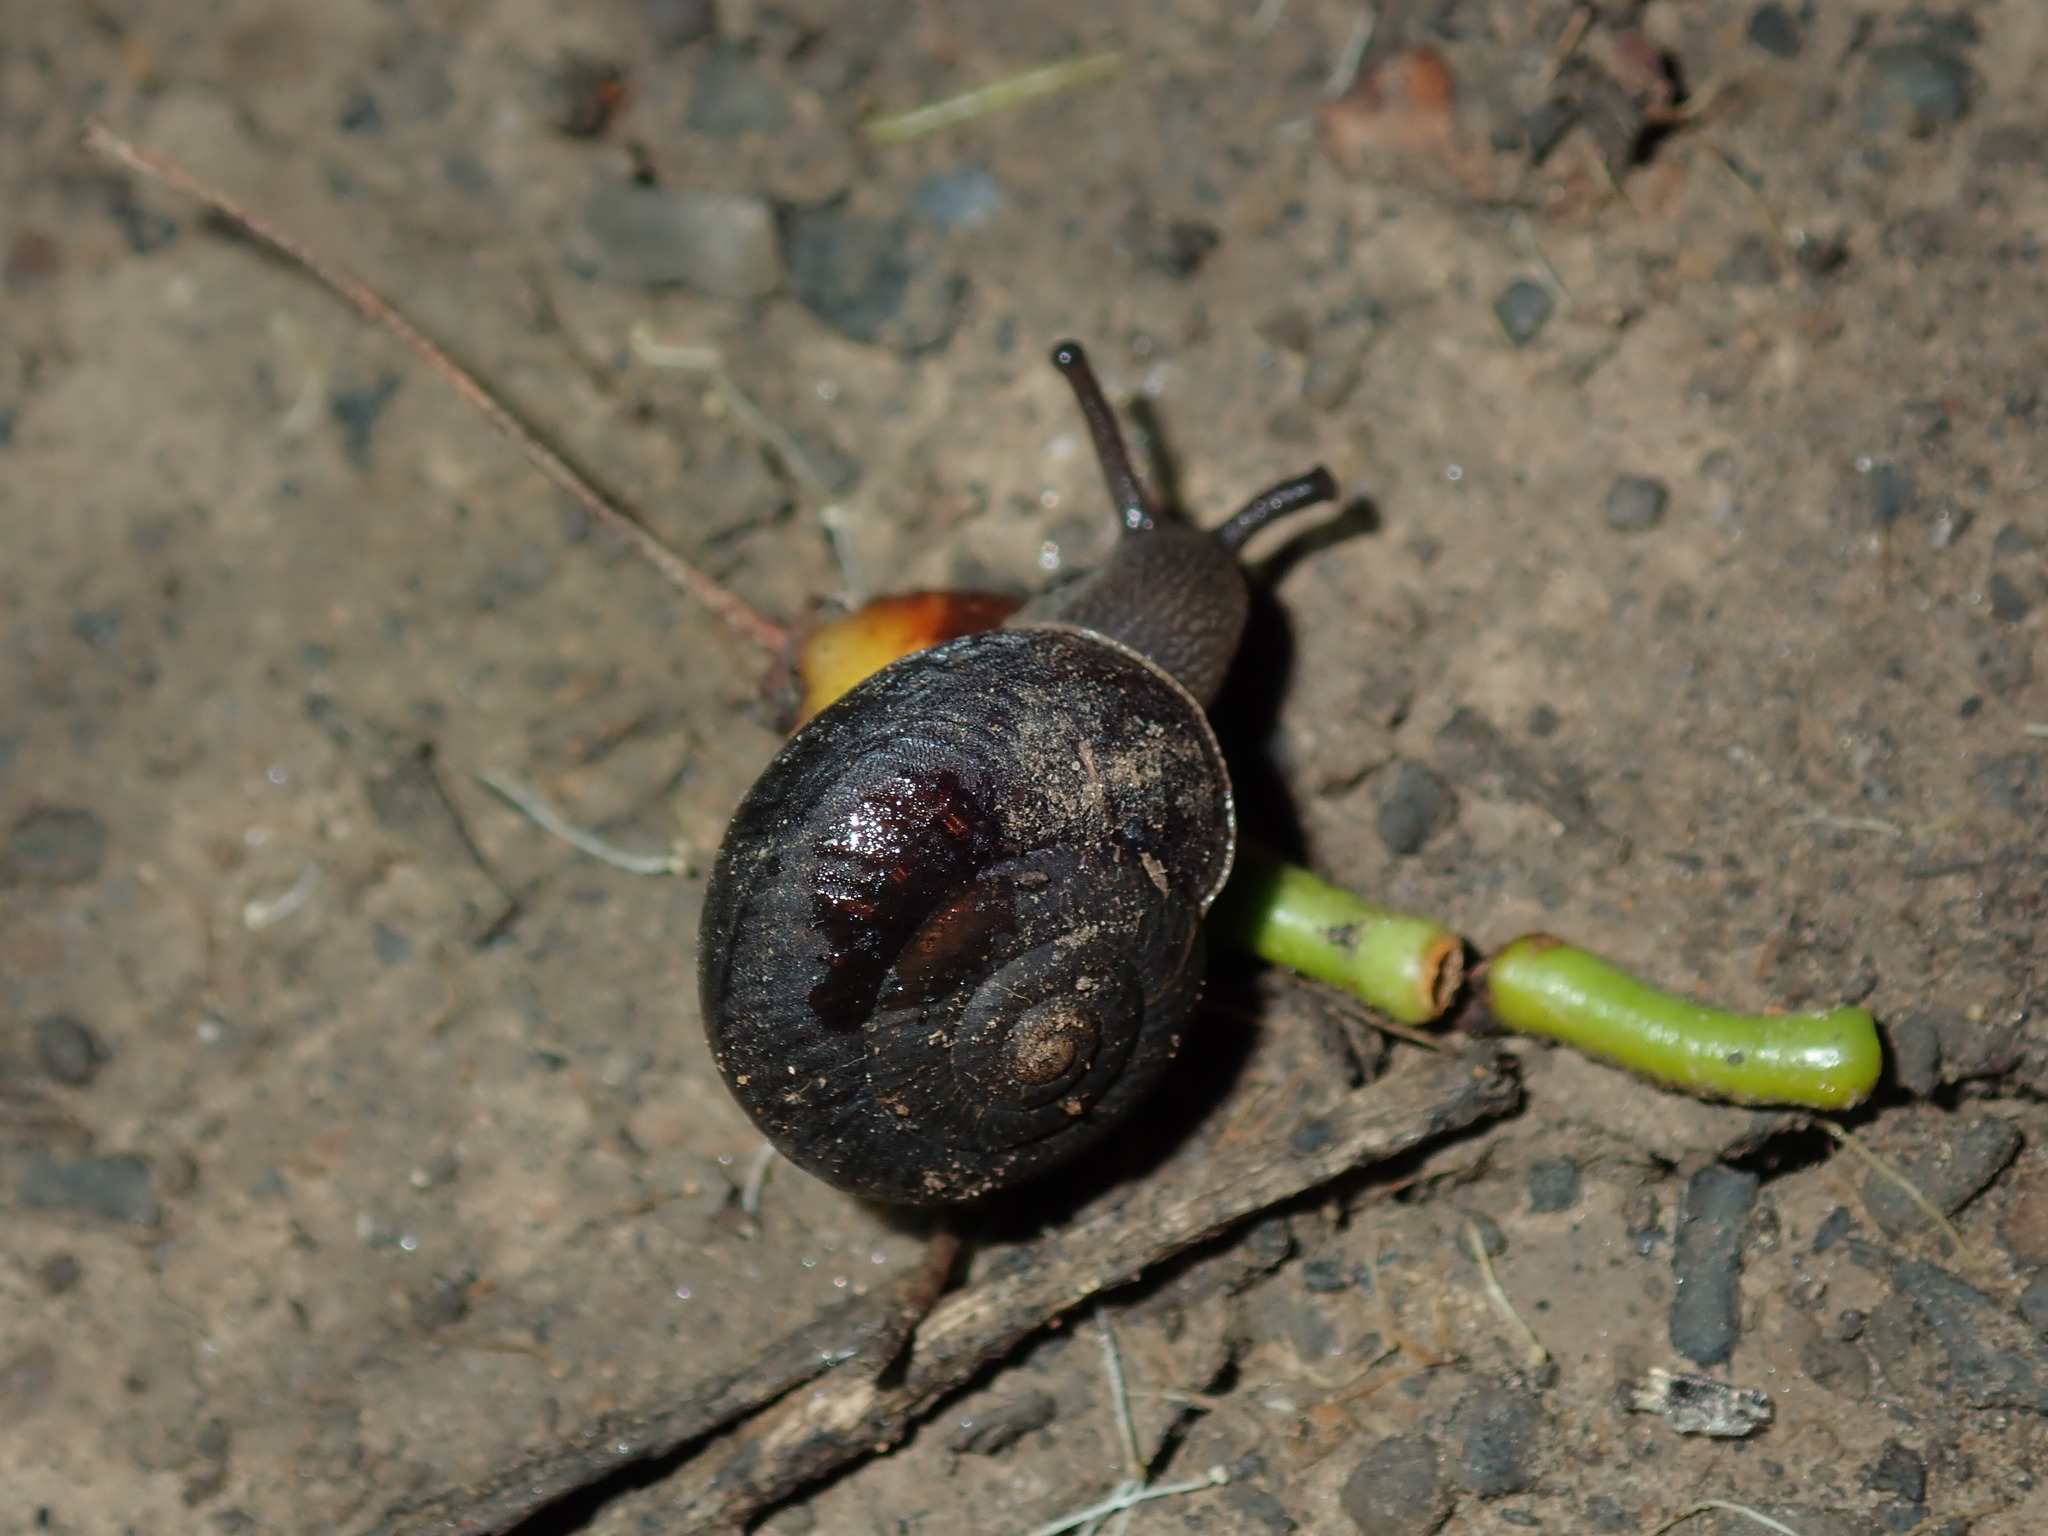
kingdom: Animalia
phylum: Mollusca
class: Gastropoda
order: Stylommatophora
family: Camaenidae
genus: Sauroconcha
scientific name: Sauroconcha sheai
